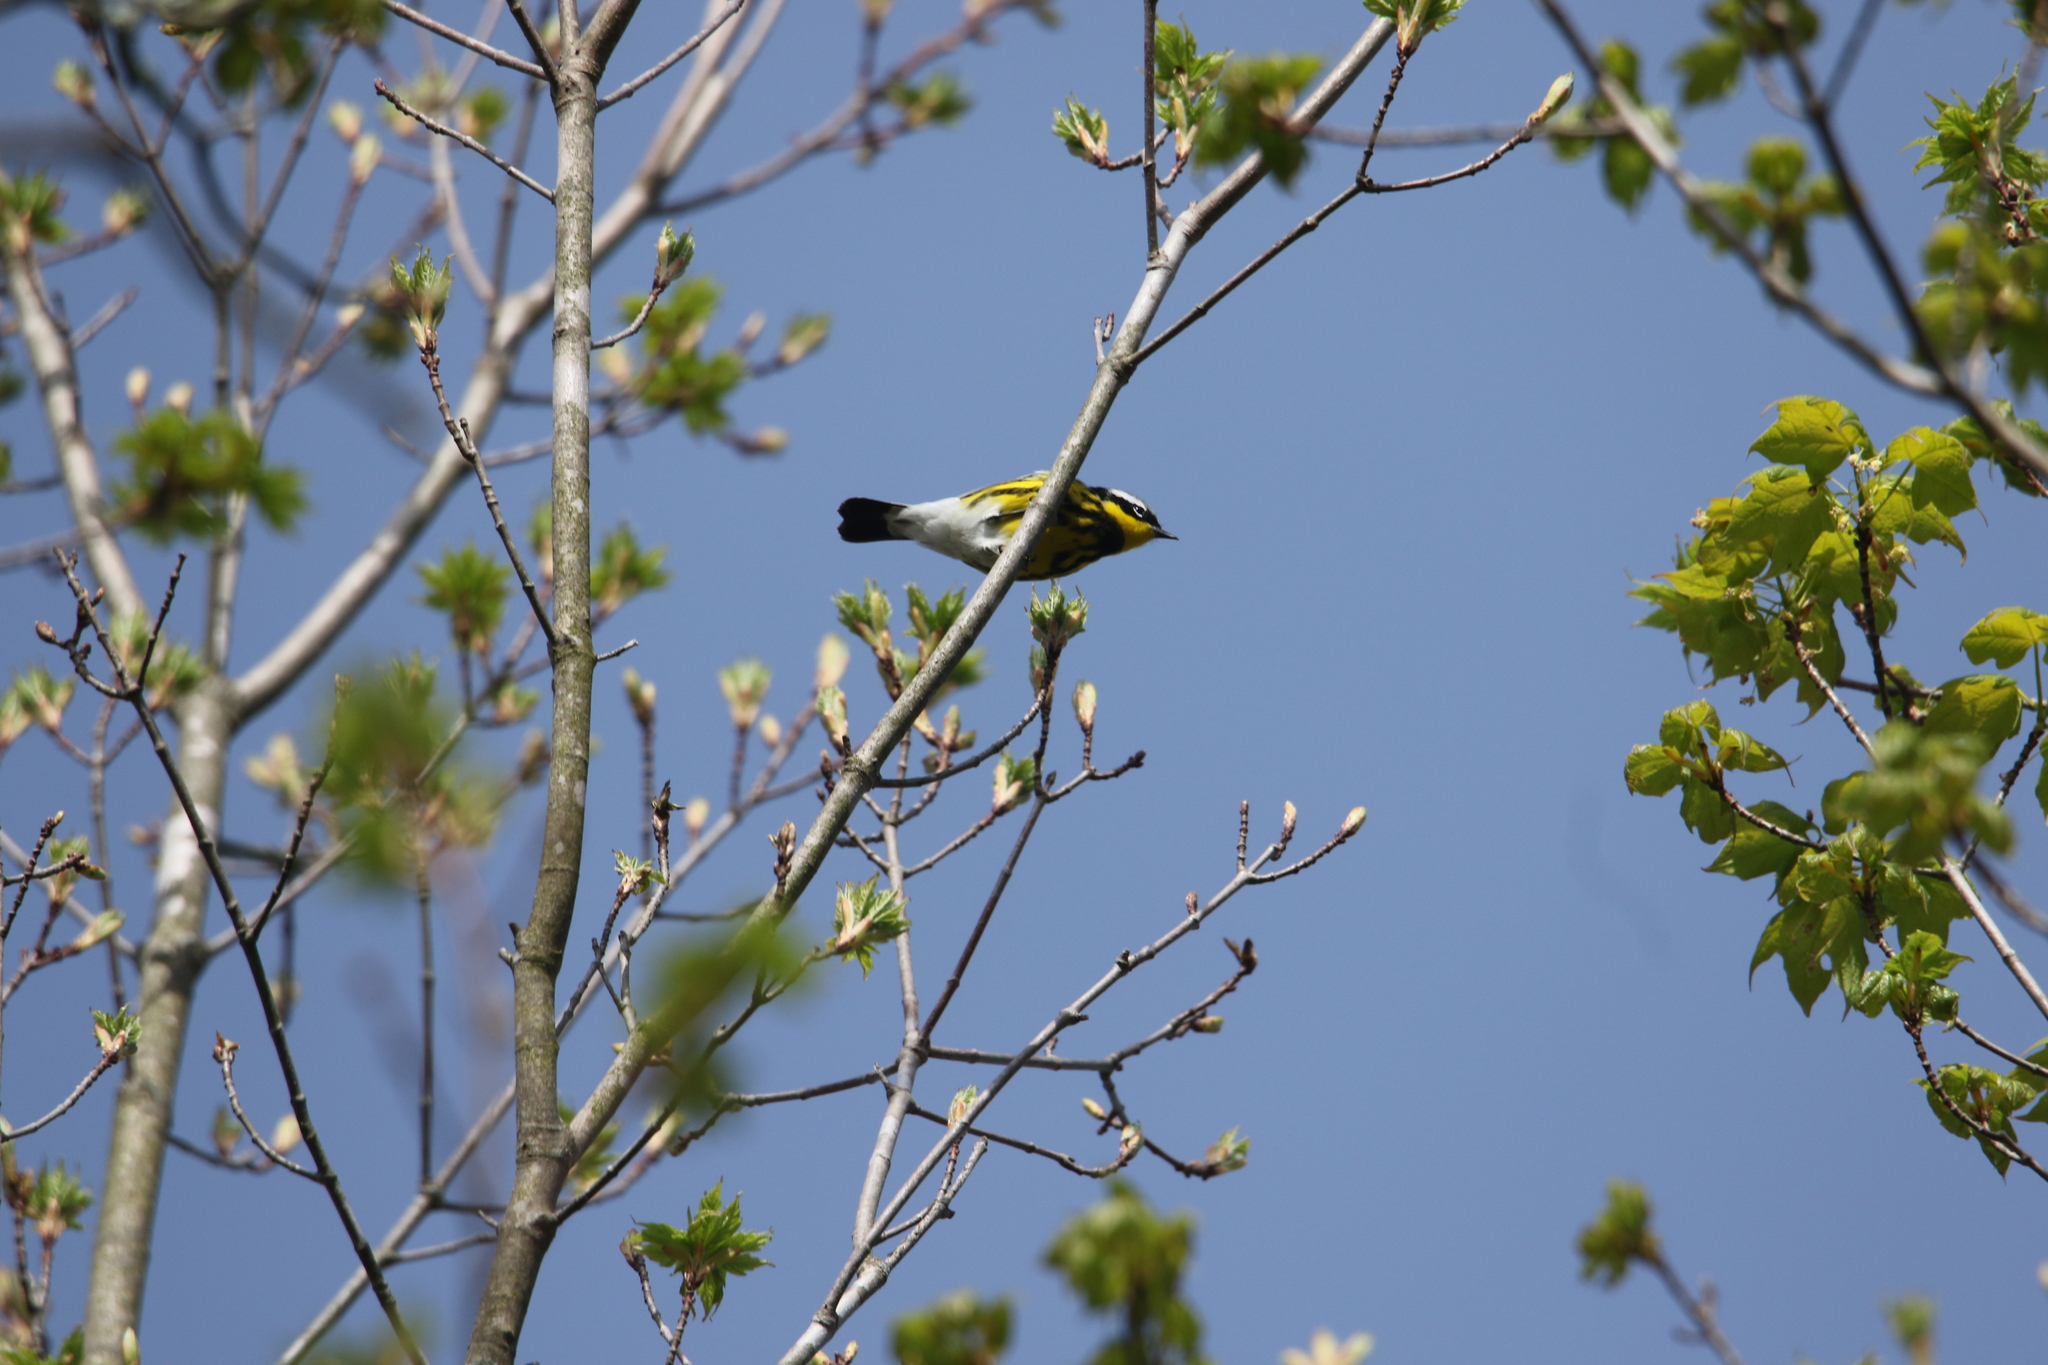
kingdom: Animalia
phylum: Chordata
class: Aves
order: Passeriformes
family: Parulidae
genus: Setophaga
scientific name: Setophaga magnolia
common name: Magnolia warbler
